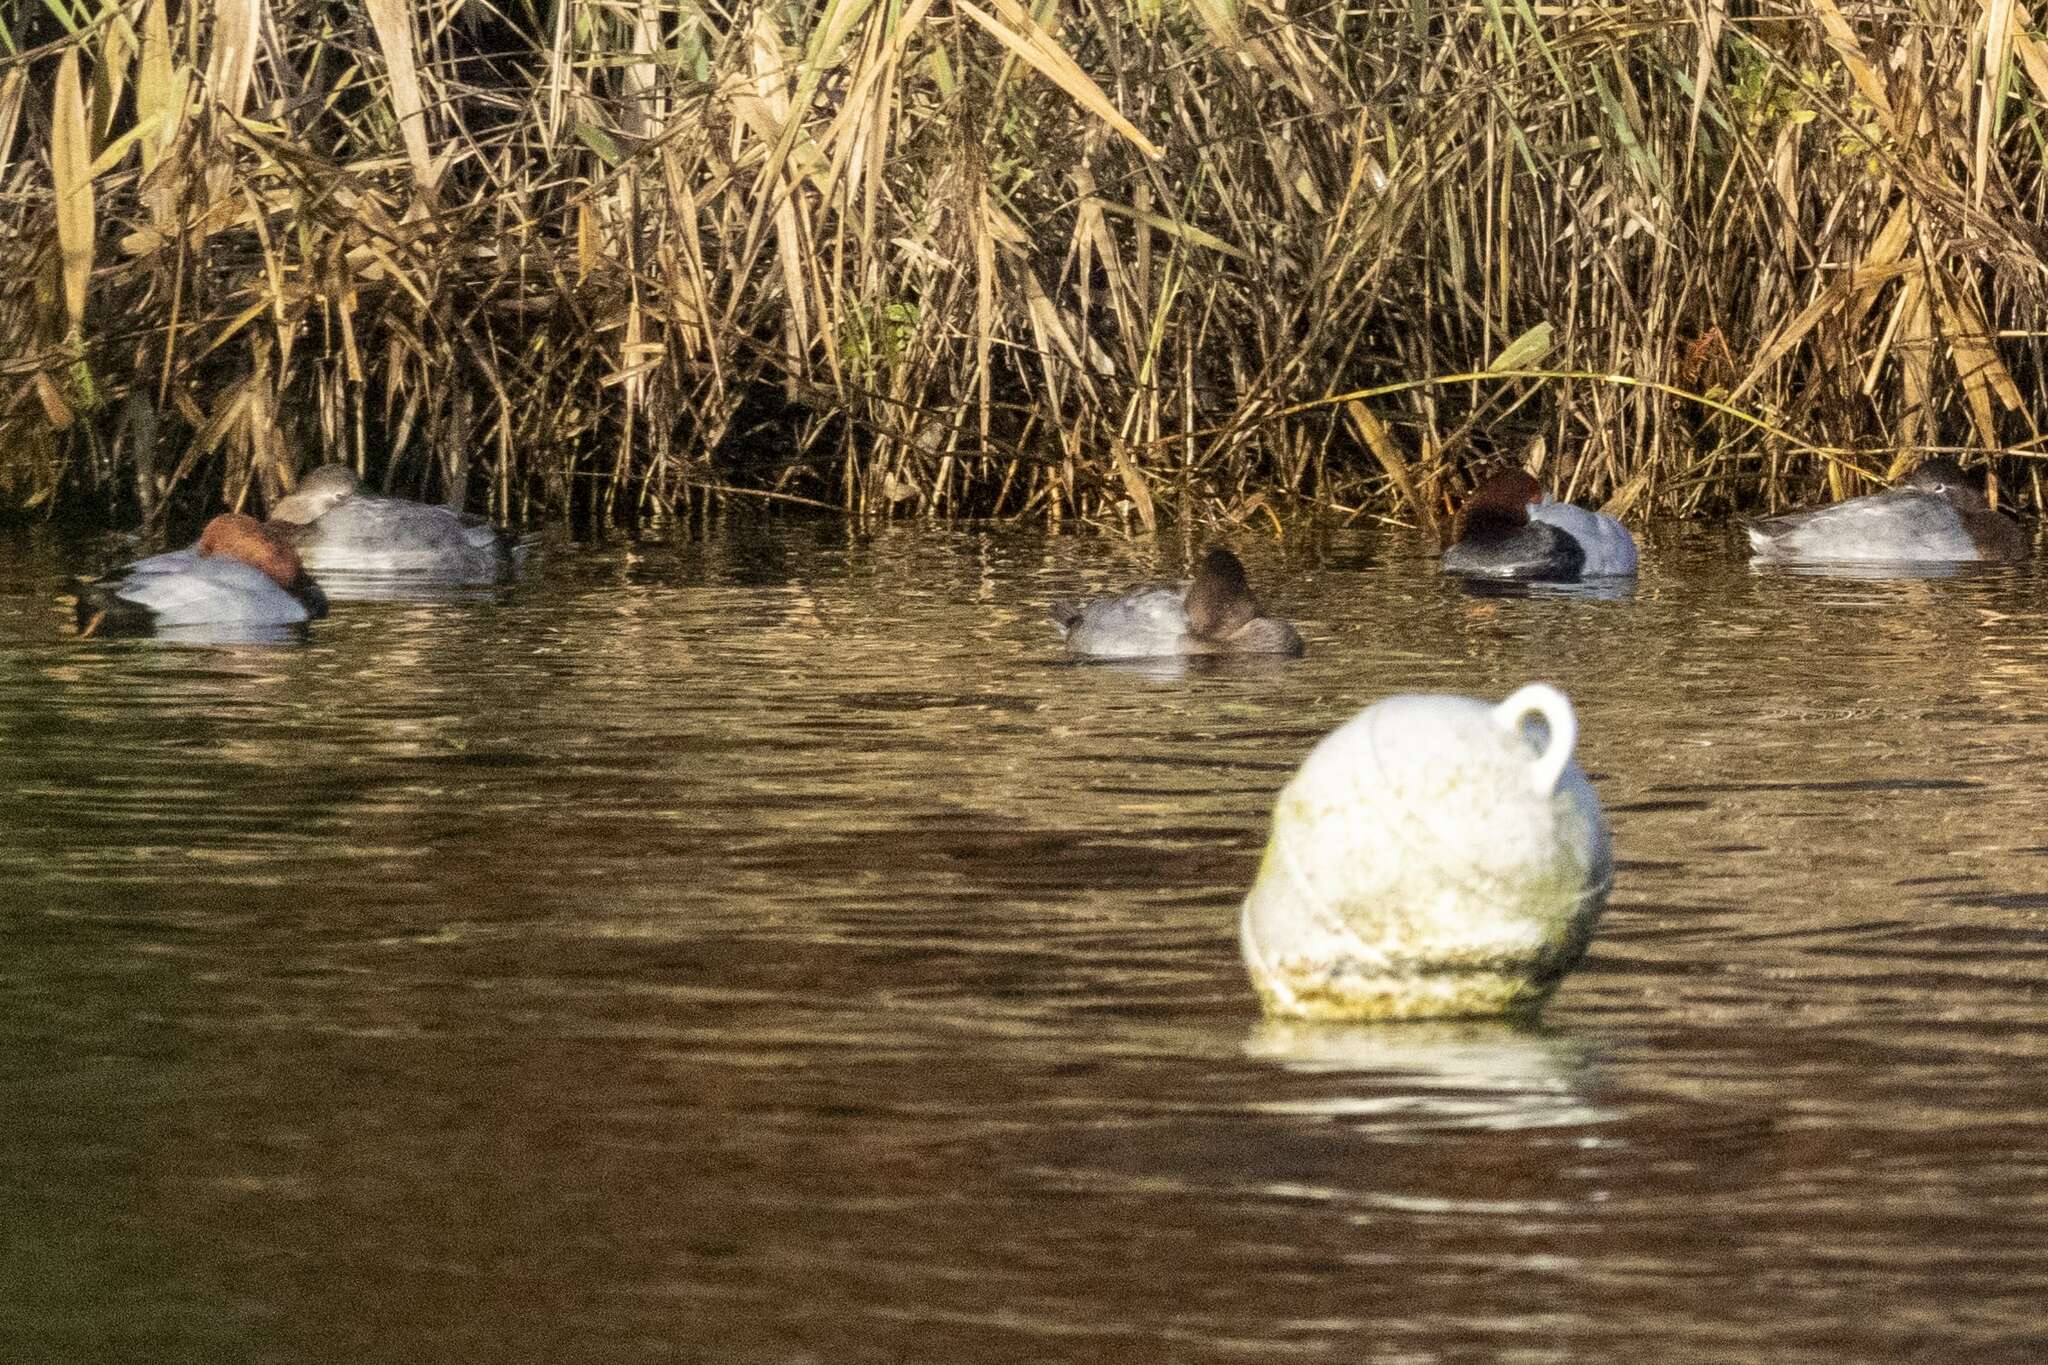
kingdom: Animalia
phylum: Chordata
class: Aves
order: Anseriformes
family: Anatidae
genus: Aythya
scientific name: Aythya ferina
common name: Common pochard
